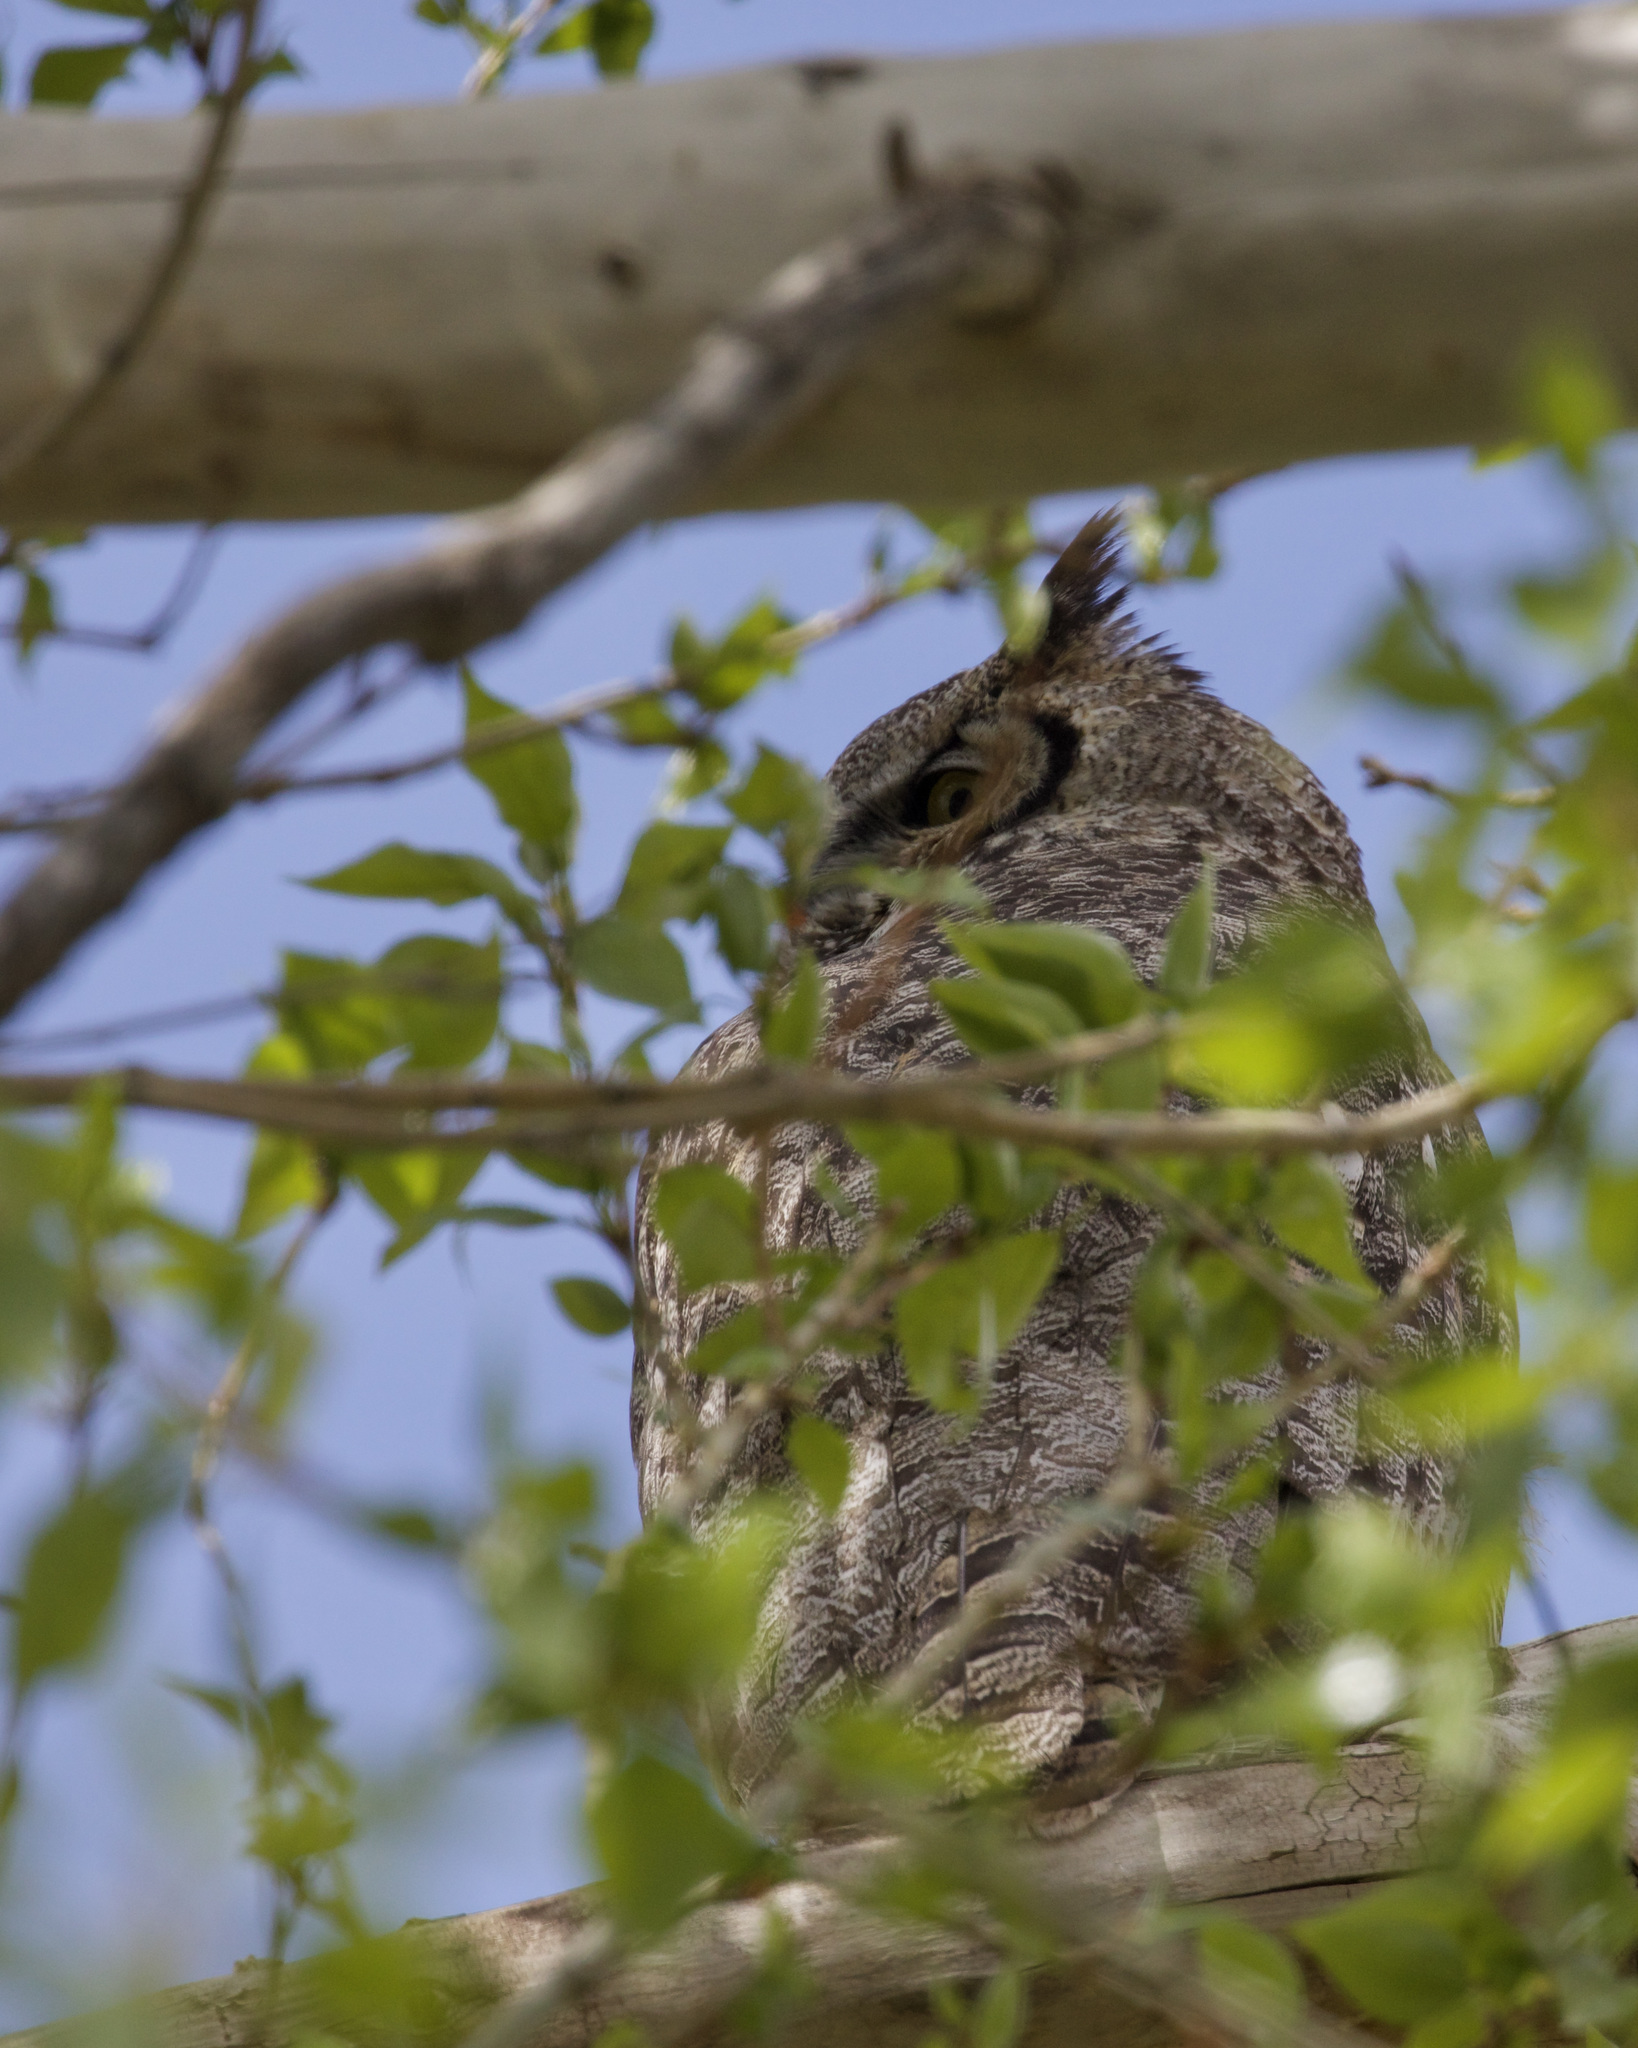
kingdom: Animalia
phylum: Chordata
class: Aves
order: Strigiformes
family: Strigidae
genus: Bubo
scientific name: Bubo virginianus
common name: Great horned owl
